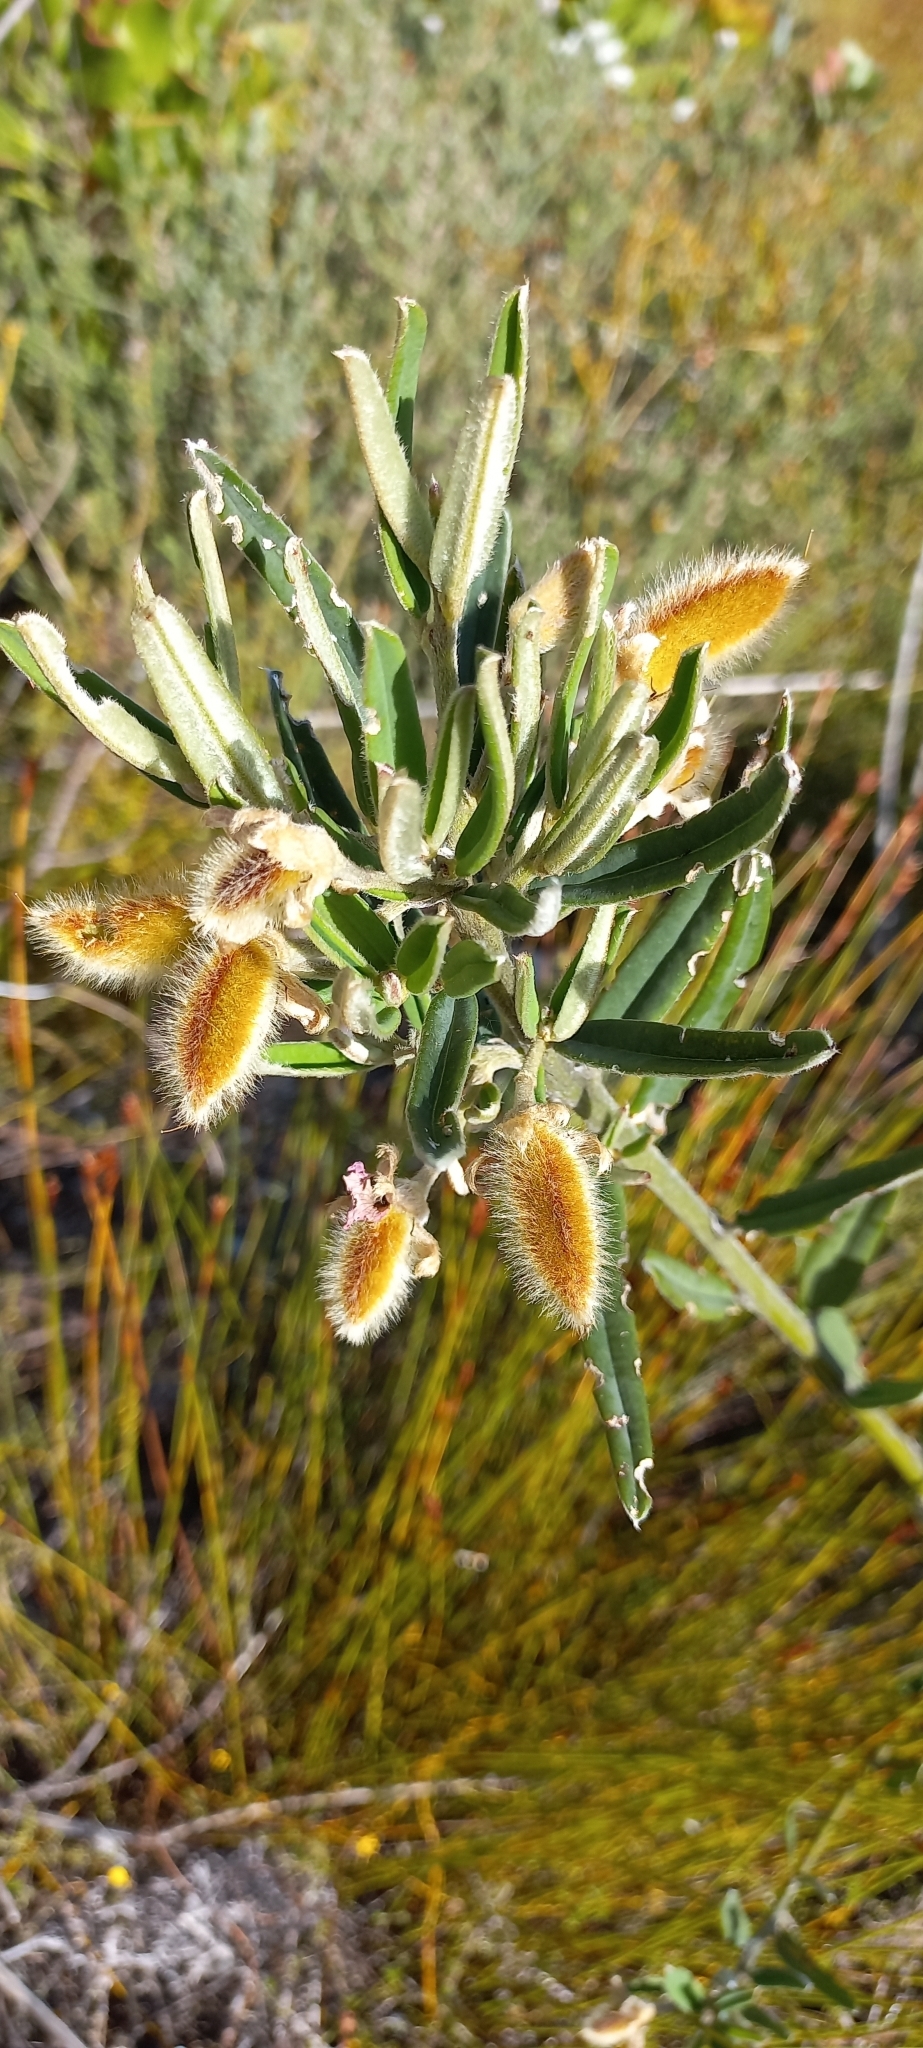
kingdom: Plantae
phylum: Tracheophyta
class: Magnoliopsida
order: Fabales
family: Fabaceae
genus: Podalyria
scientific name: Podalyria oleifolia
